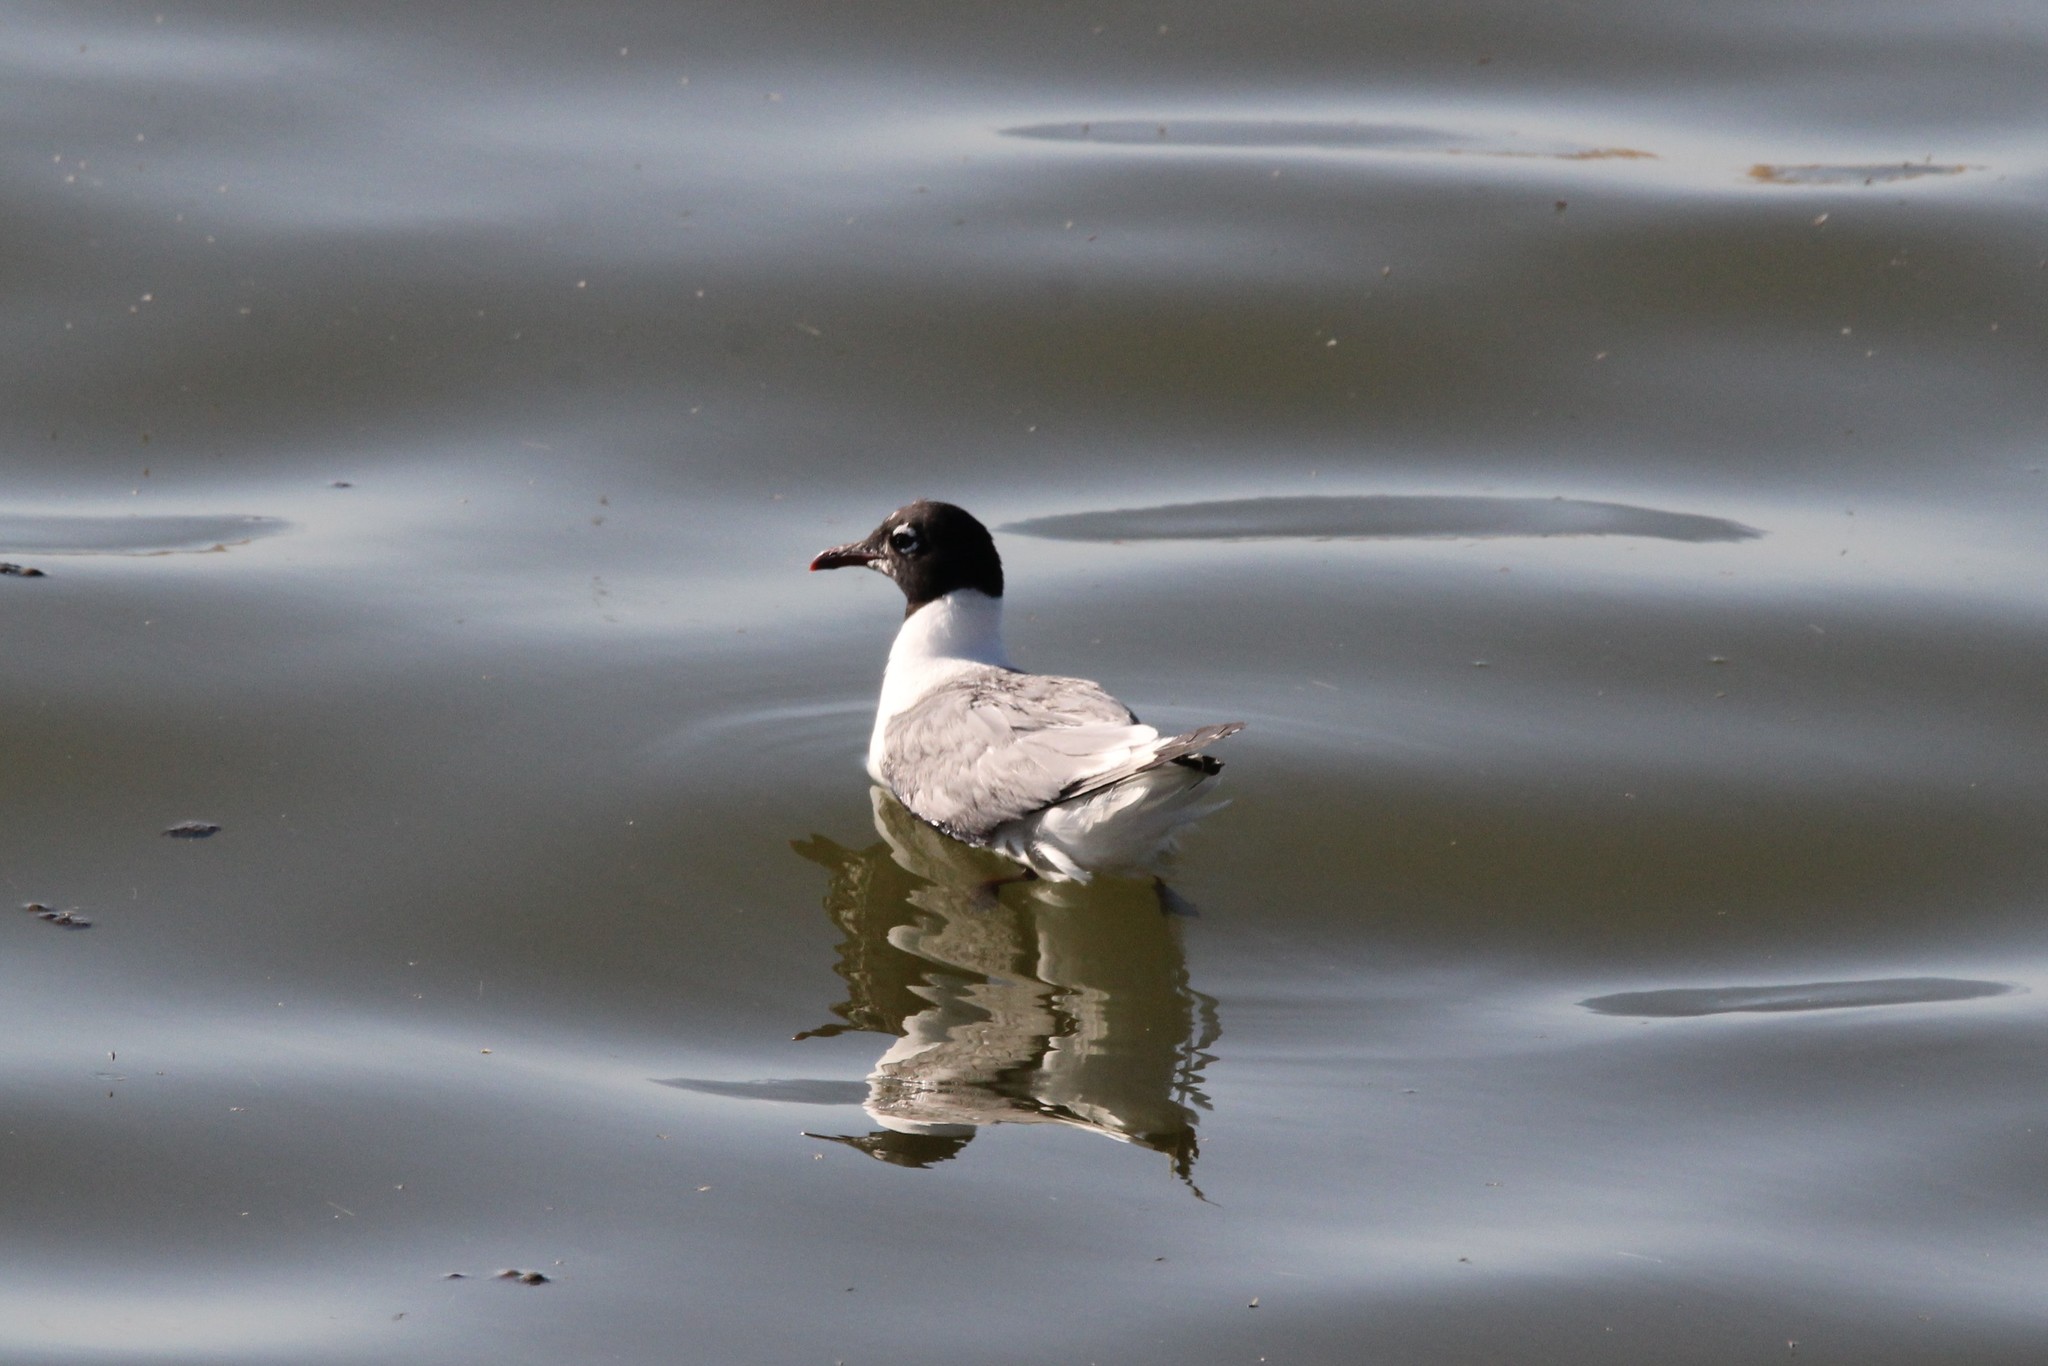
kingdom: Animalia
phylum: Chordata
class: Aves
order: Charadriiformes
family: Laridae
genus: Leucophaeus
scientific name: Leucophaeus pipixcan
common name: Franklin's gull
